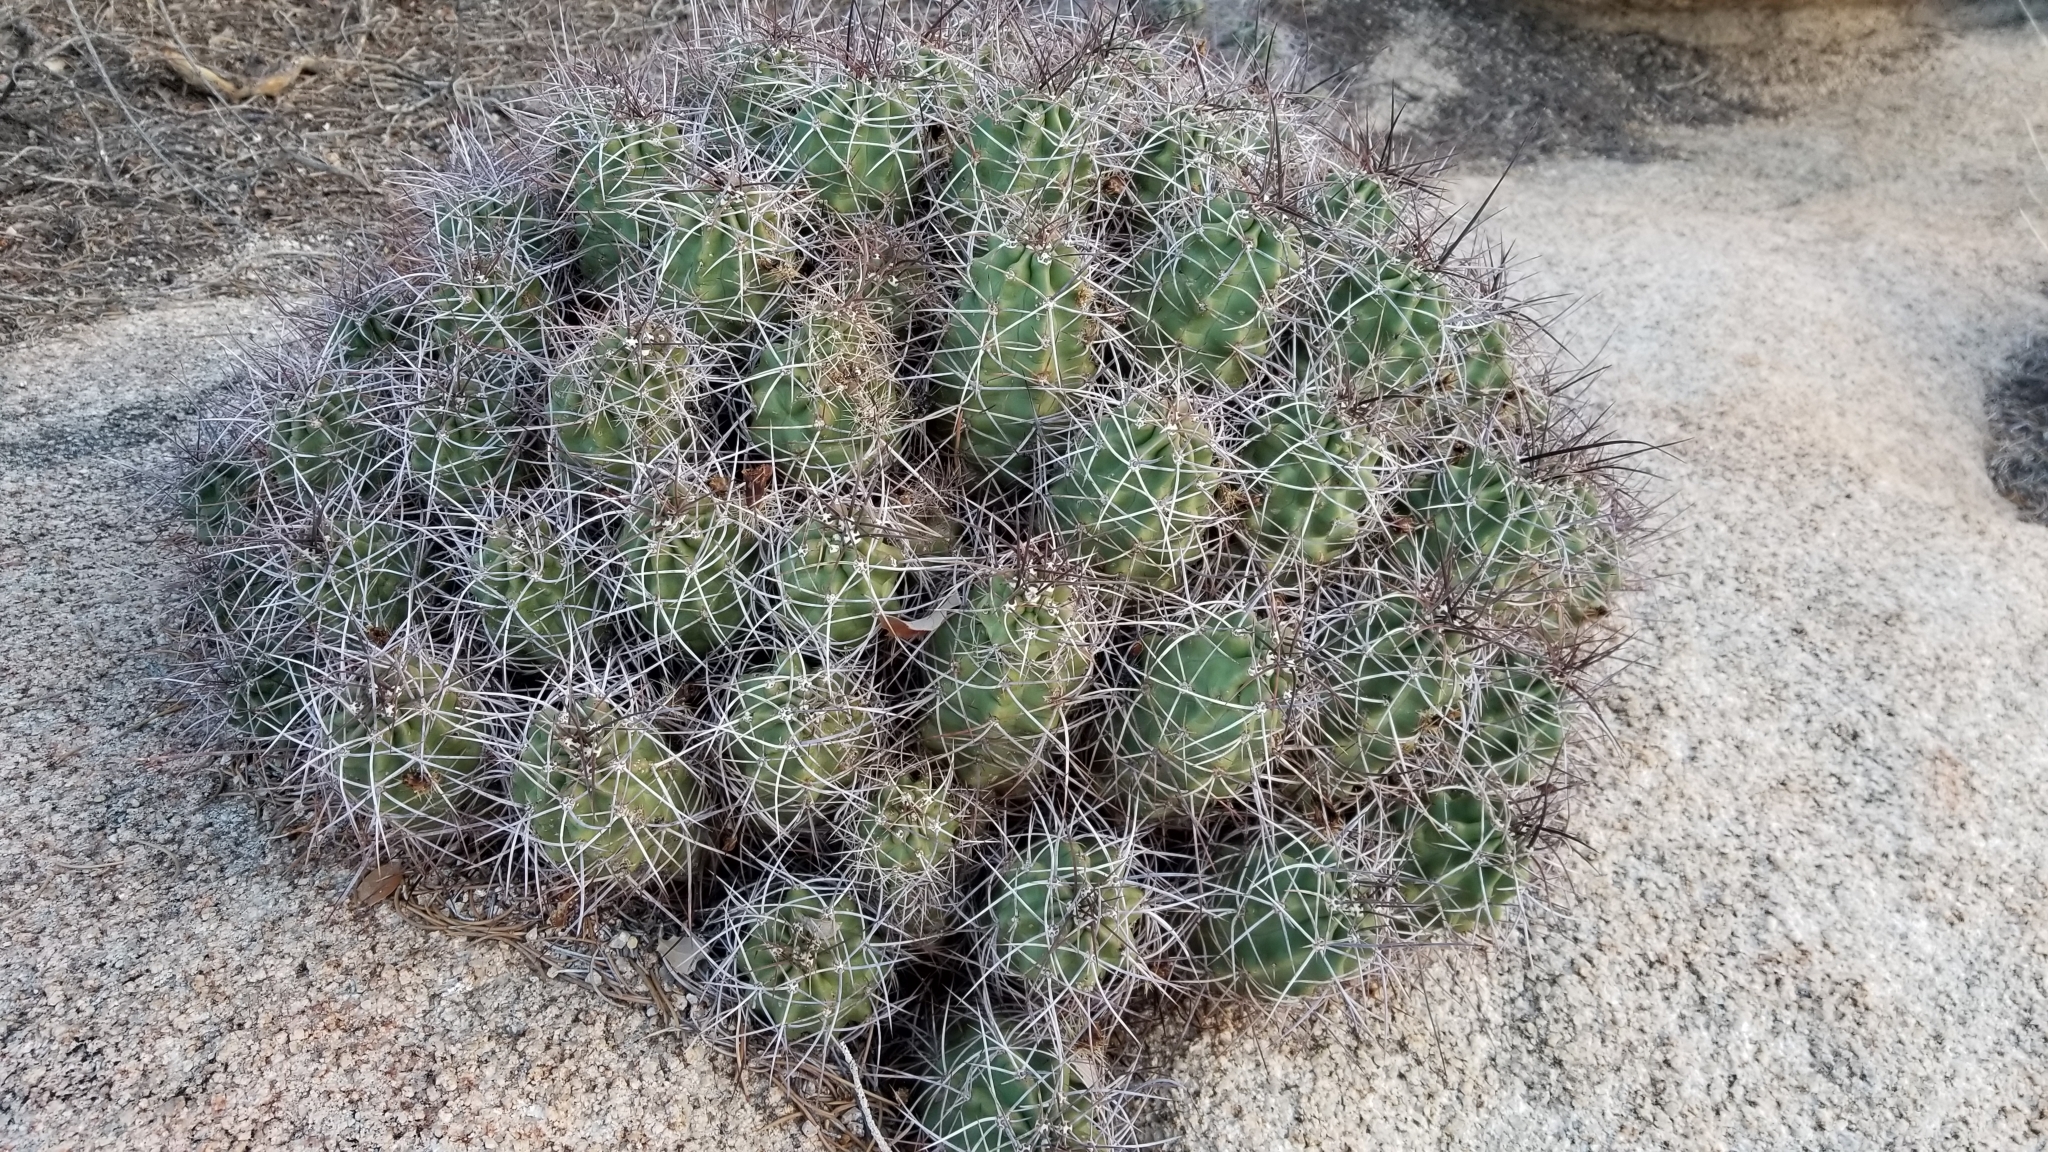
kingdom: Plantae
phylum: Tracheophyta
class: Magnoliopsida
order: Caryophyllales
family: Cactaceae
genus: Echinocereus
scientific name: Echinocereus triglochidiatus
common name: Claretcup hedgehog
